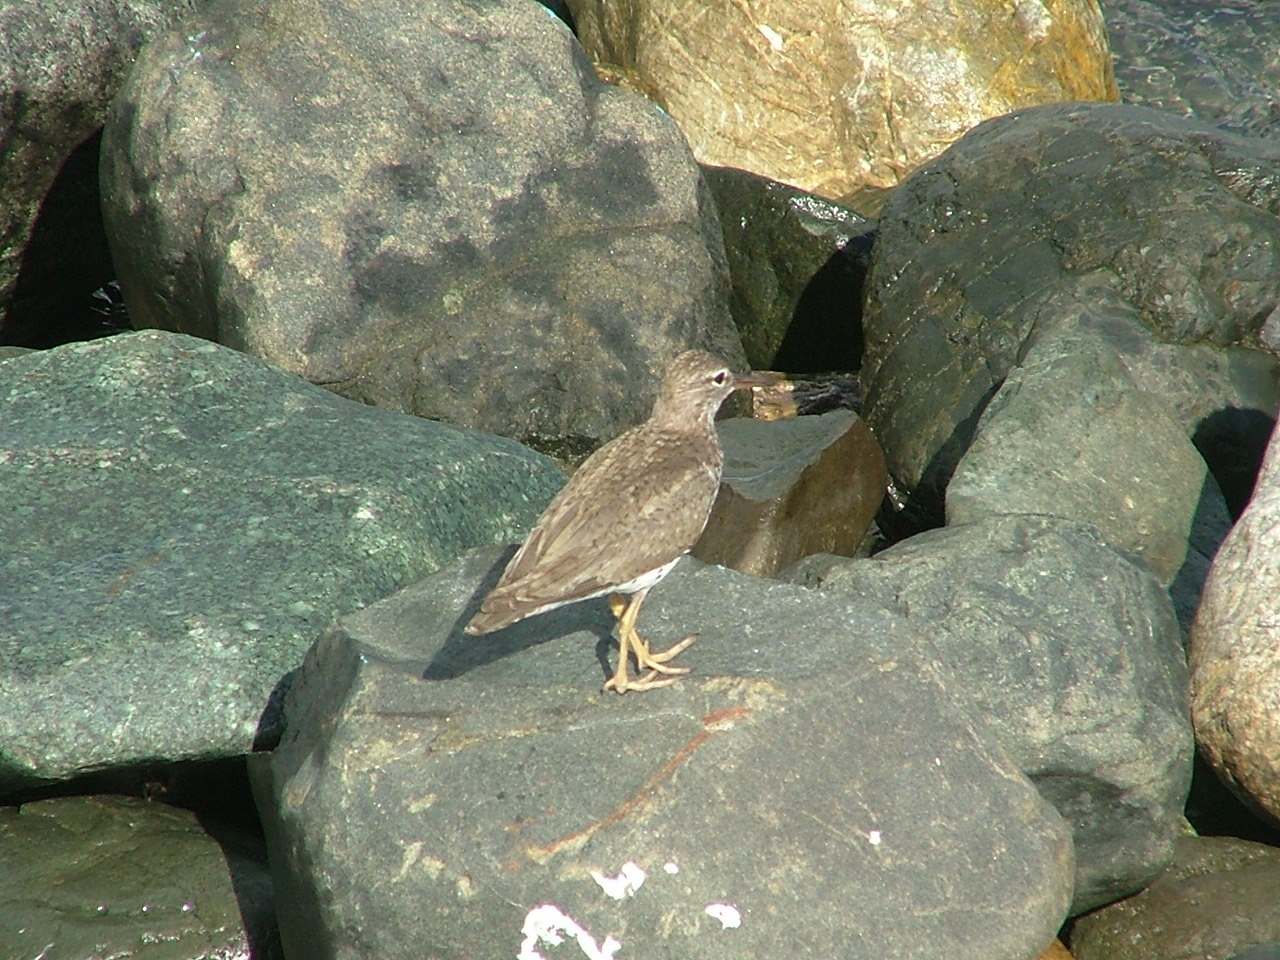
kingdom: Animalia
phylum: Chordata
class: Aves
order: Charadriiformes
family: Scolopacidae
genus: Actitis
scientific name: Actitis macularius
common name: Spotted sandpiper
